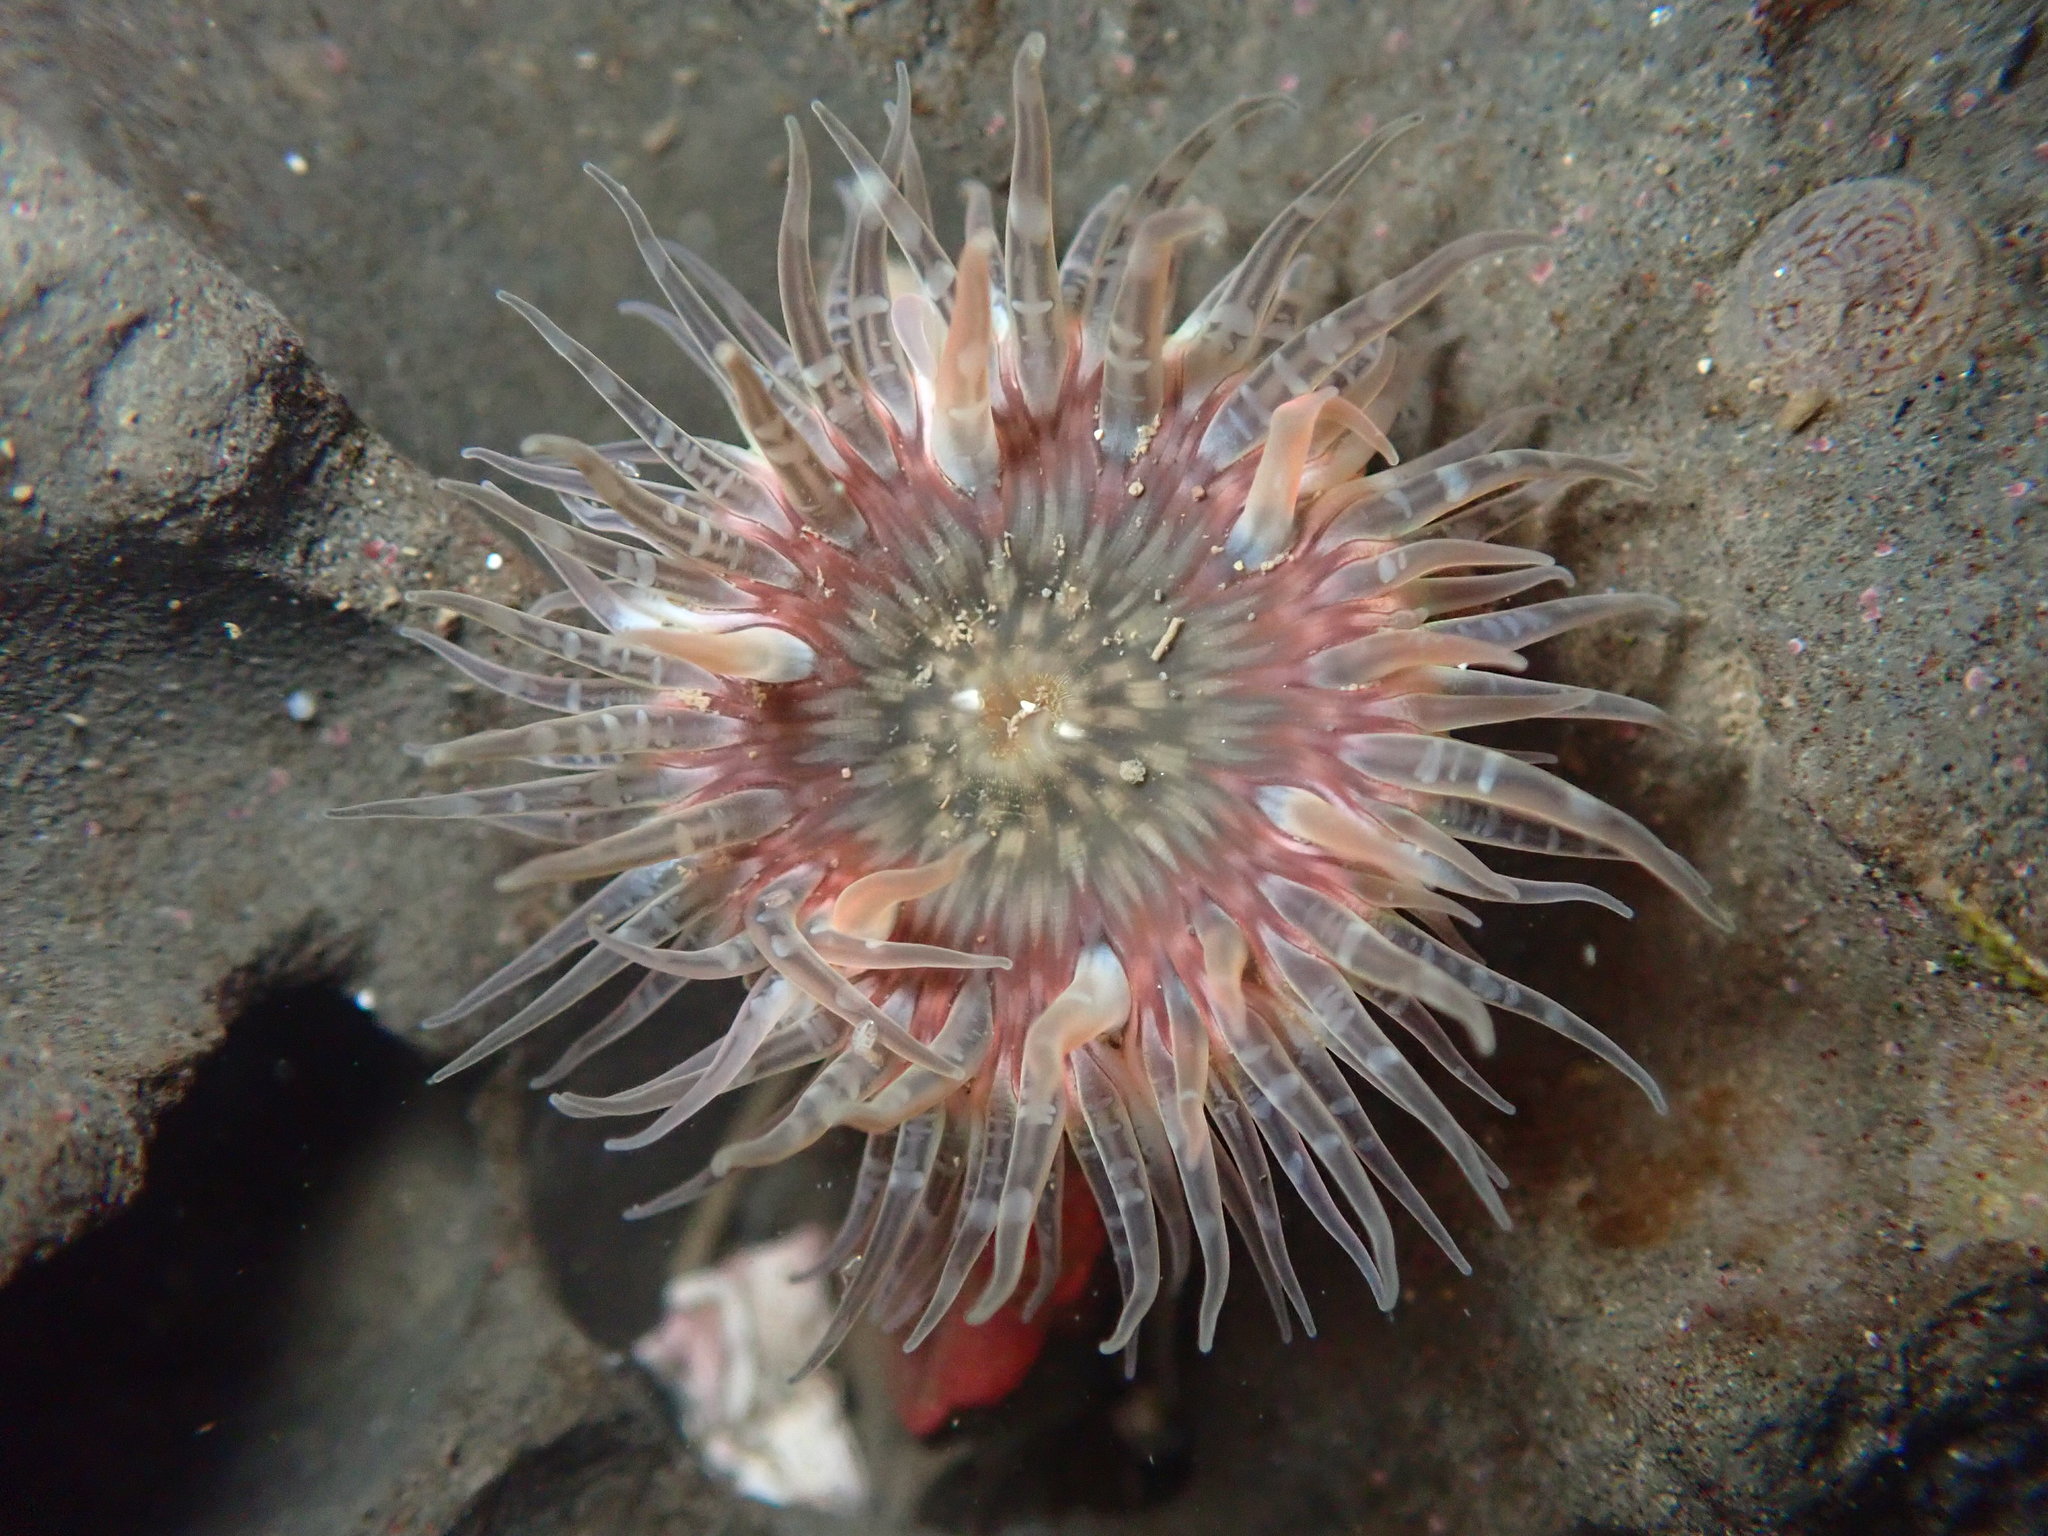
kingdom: Animalia
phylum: Cnidaria
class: Anthozoa
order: Actiniaria
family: Actiniidae
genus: Anthopleura
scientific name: Anthopleura artemisia
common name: Buried sea anemone
